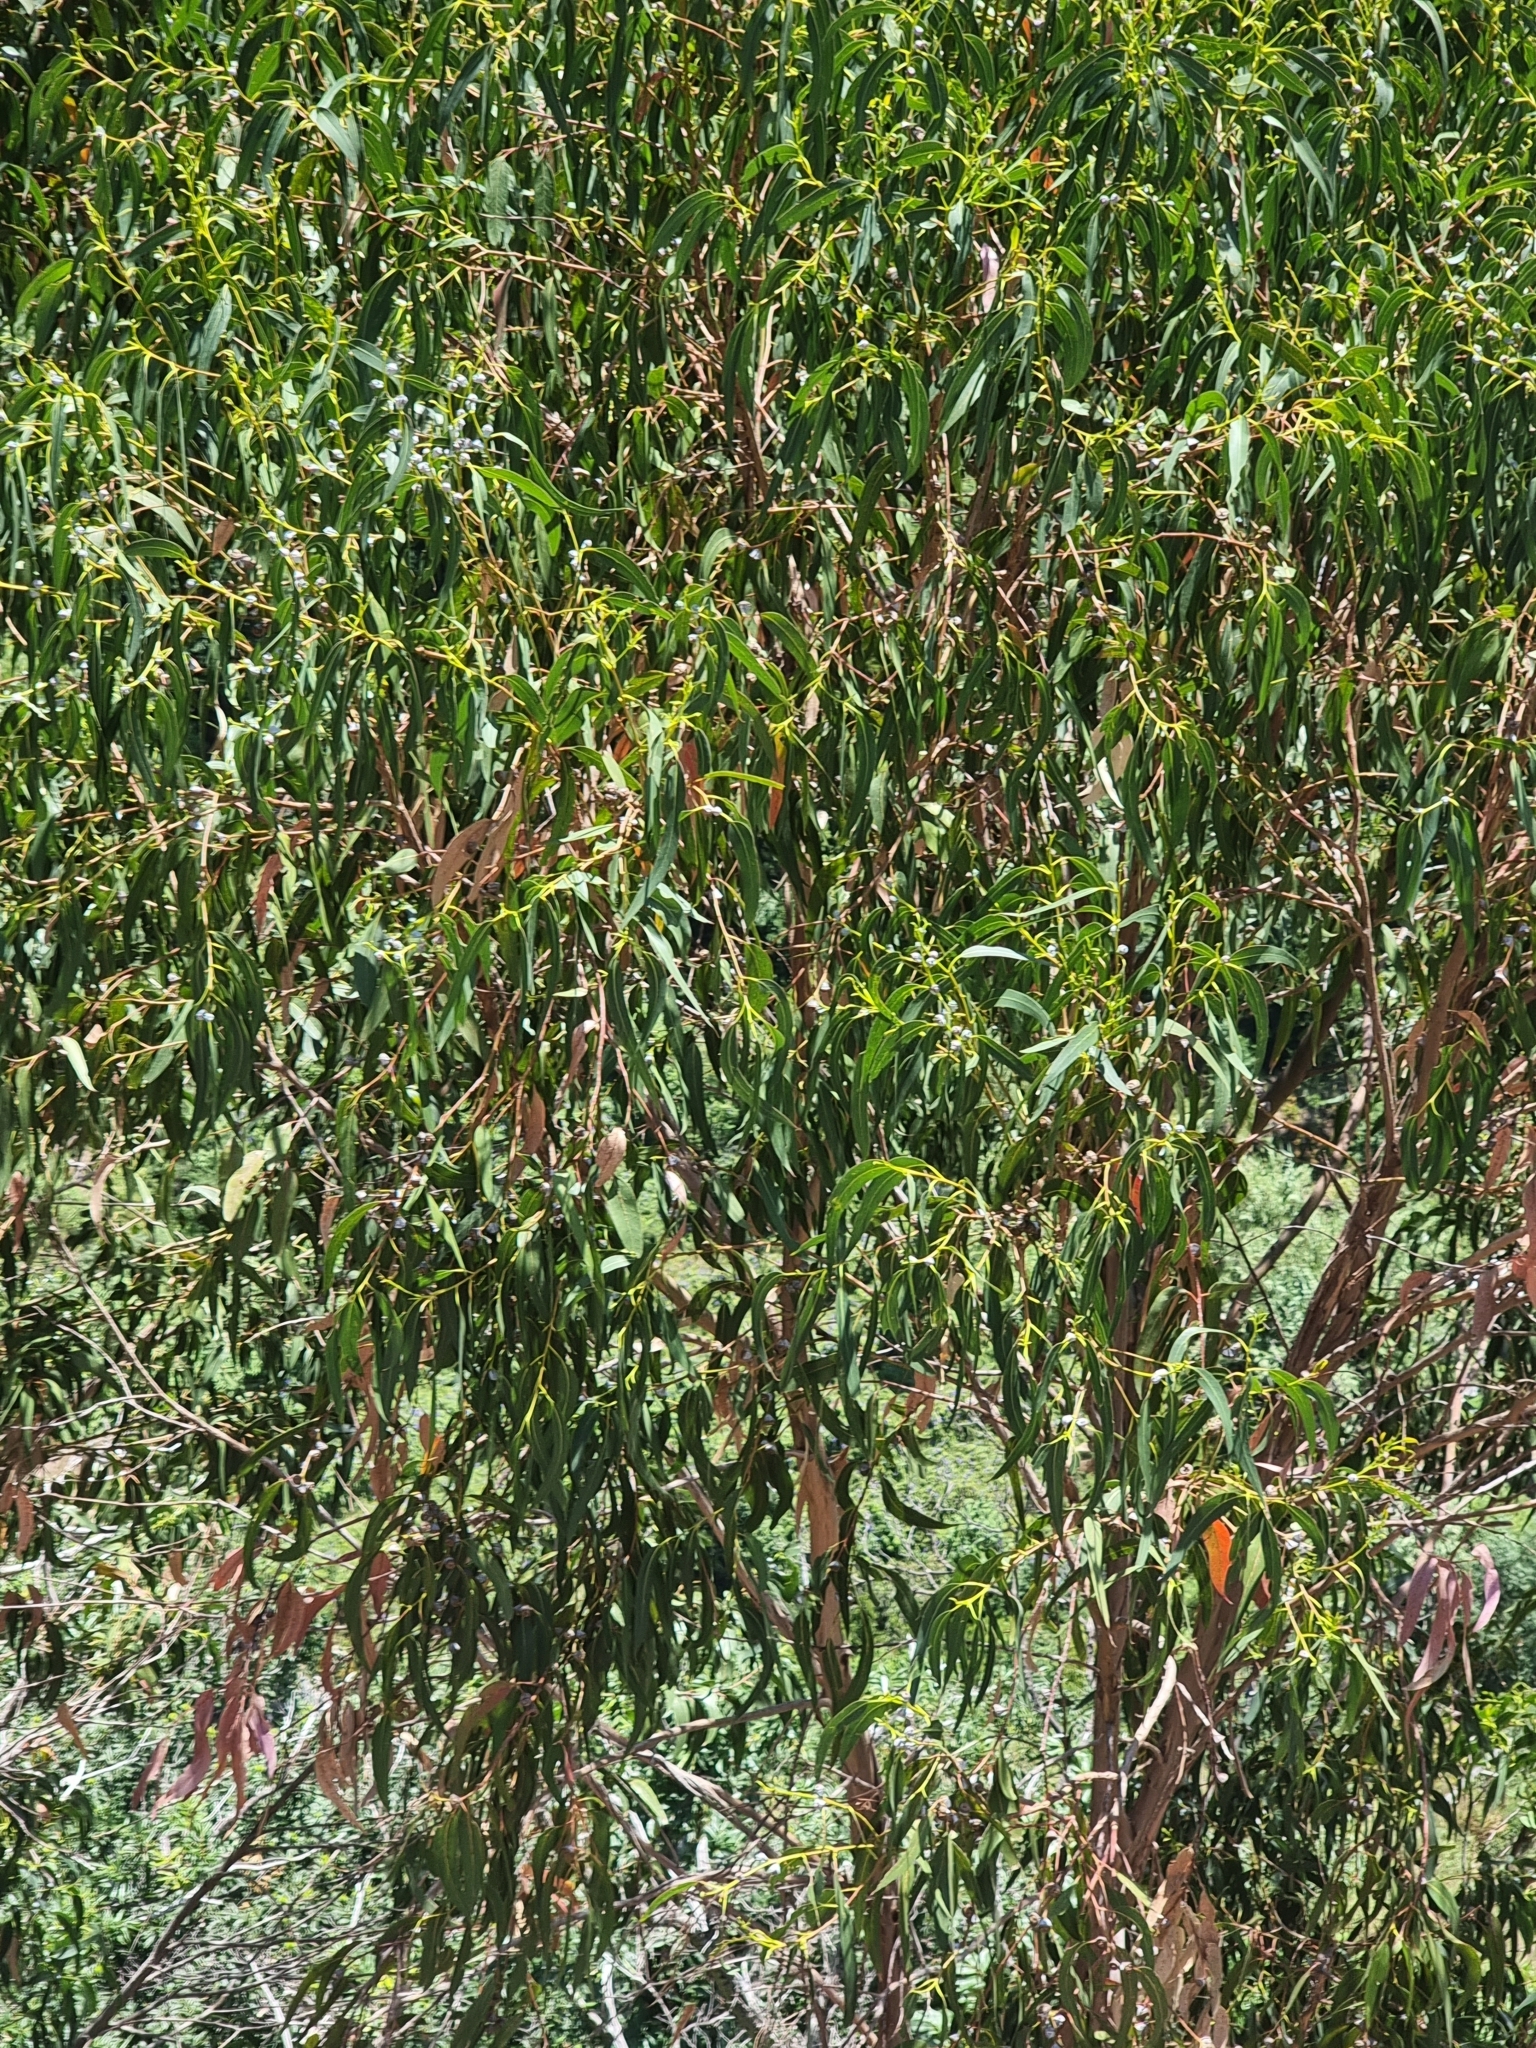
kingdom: Plantae
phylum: Tracheophyta
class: Magnoliopsida
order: Myrtales
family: Myrtaceae
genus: Eucalyptus
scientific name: Eucalyptus globulus
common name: Southern blue-gum
